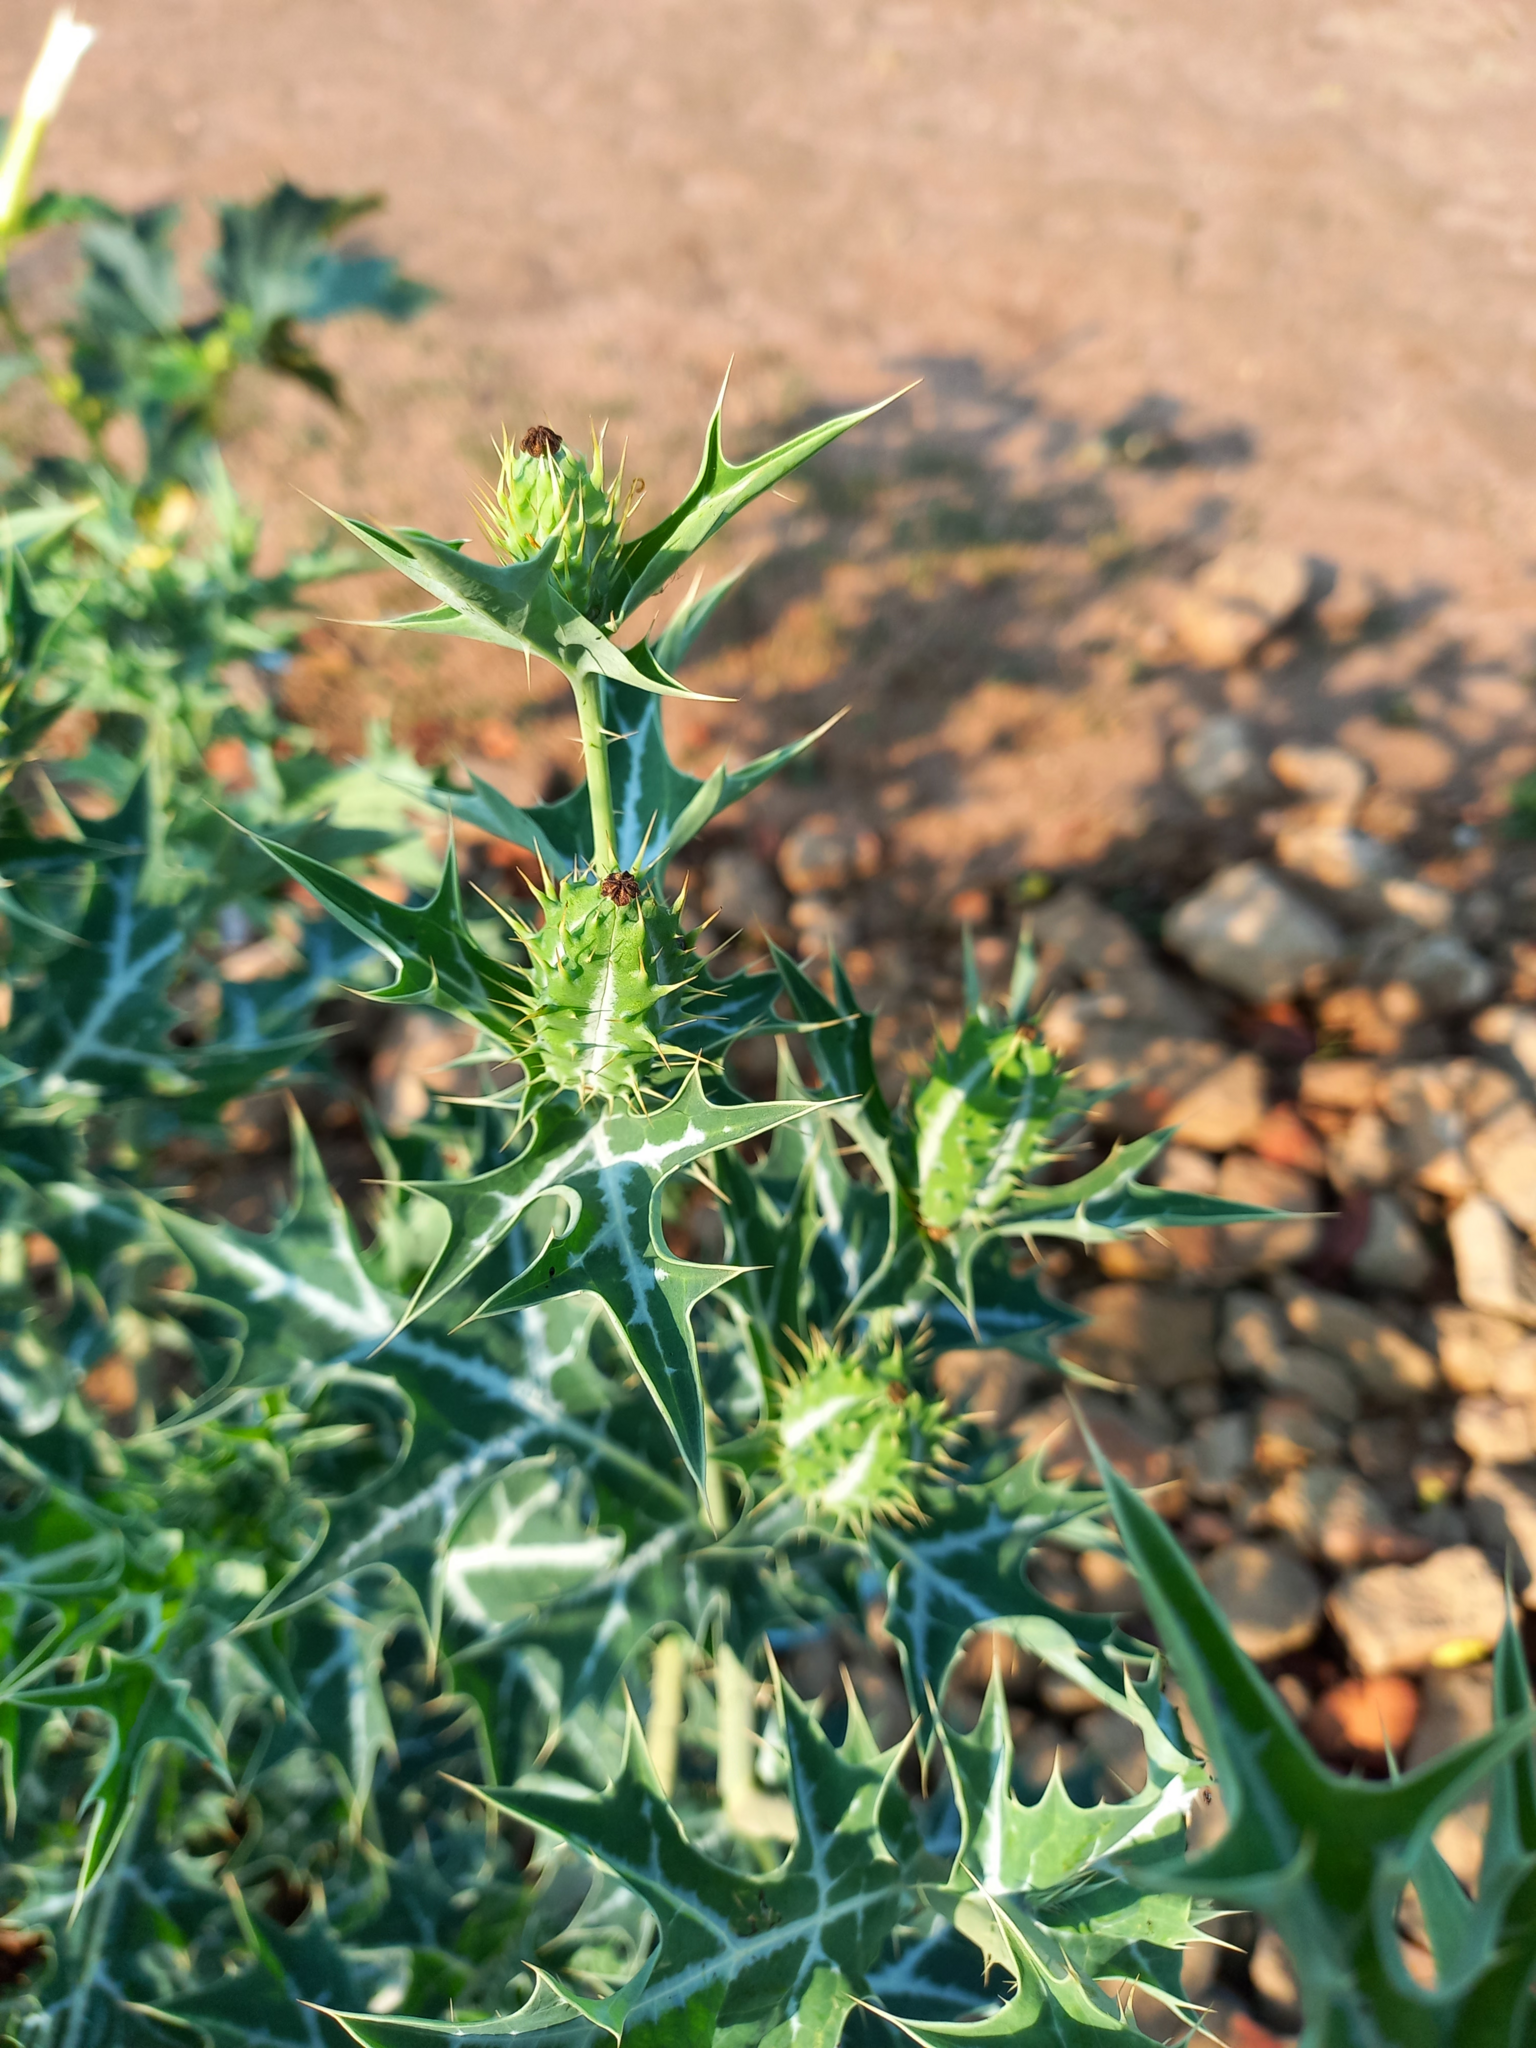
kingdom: Plantae
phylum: Tracheophyta
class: Magnoliopsida
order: Ranunculales
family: Papaveraceae
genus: Argemone
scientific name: Argemone mexicana
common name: Mexican poppy
